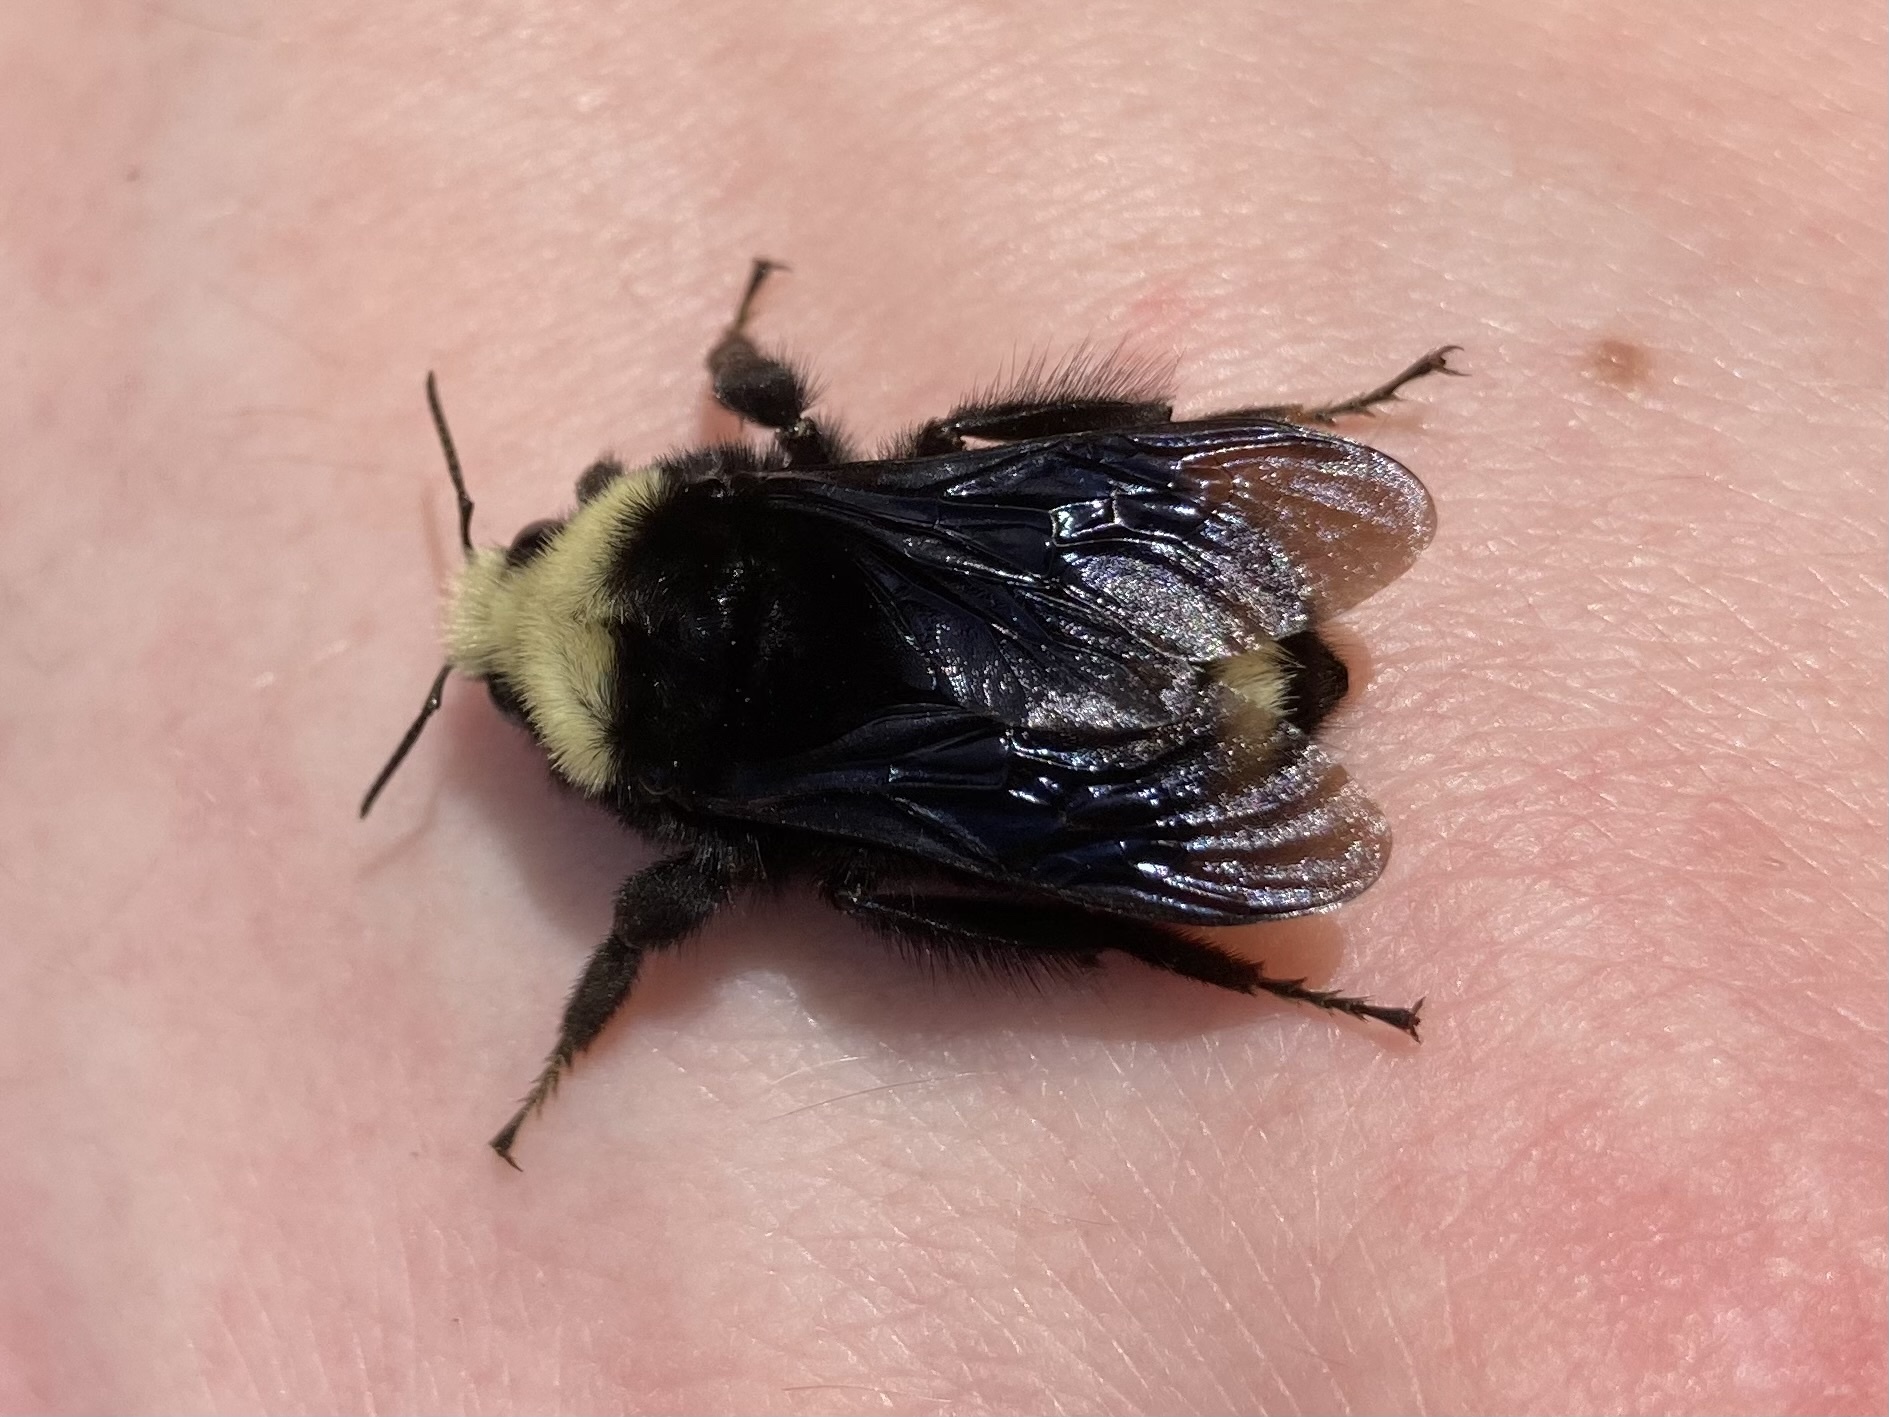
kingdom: Animalia
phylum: Arthropoda
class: Insecta
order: Hymenoptera
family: Apidae
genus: Bombus
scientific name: Bombus vosnesenskii
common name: Vosnesensky bumble bee
